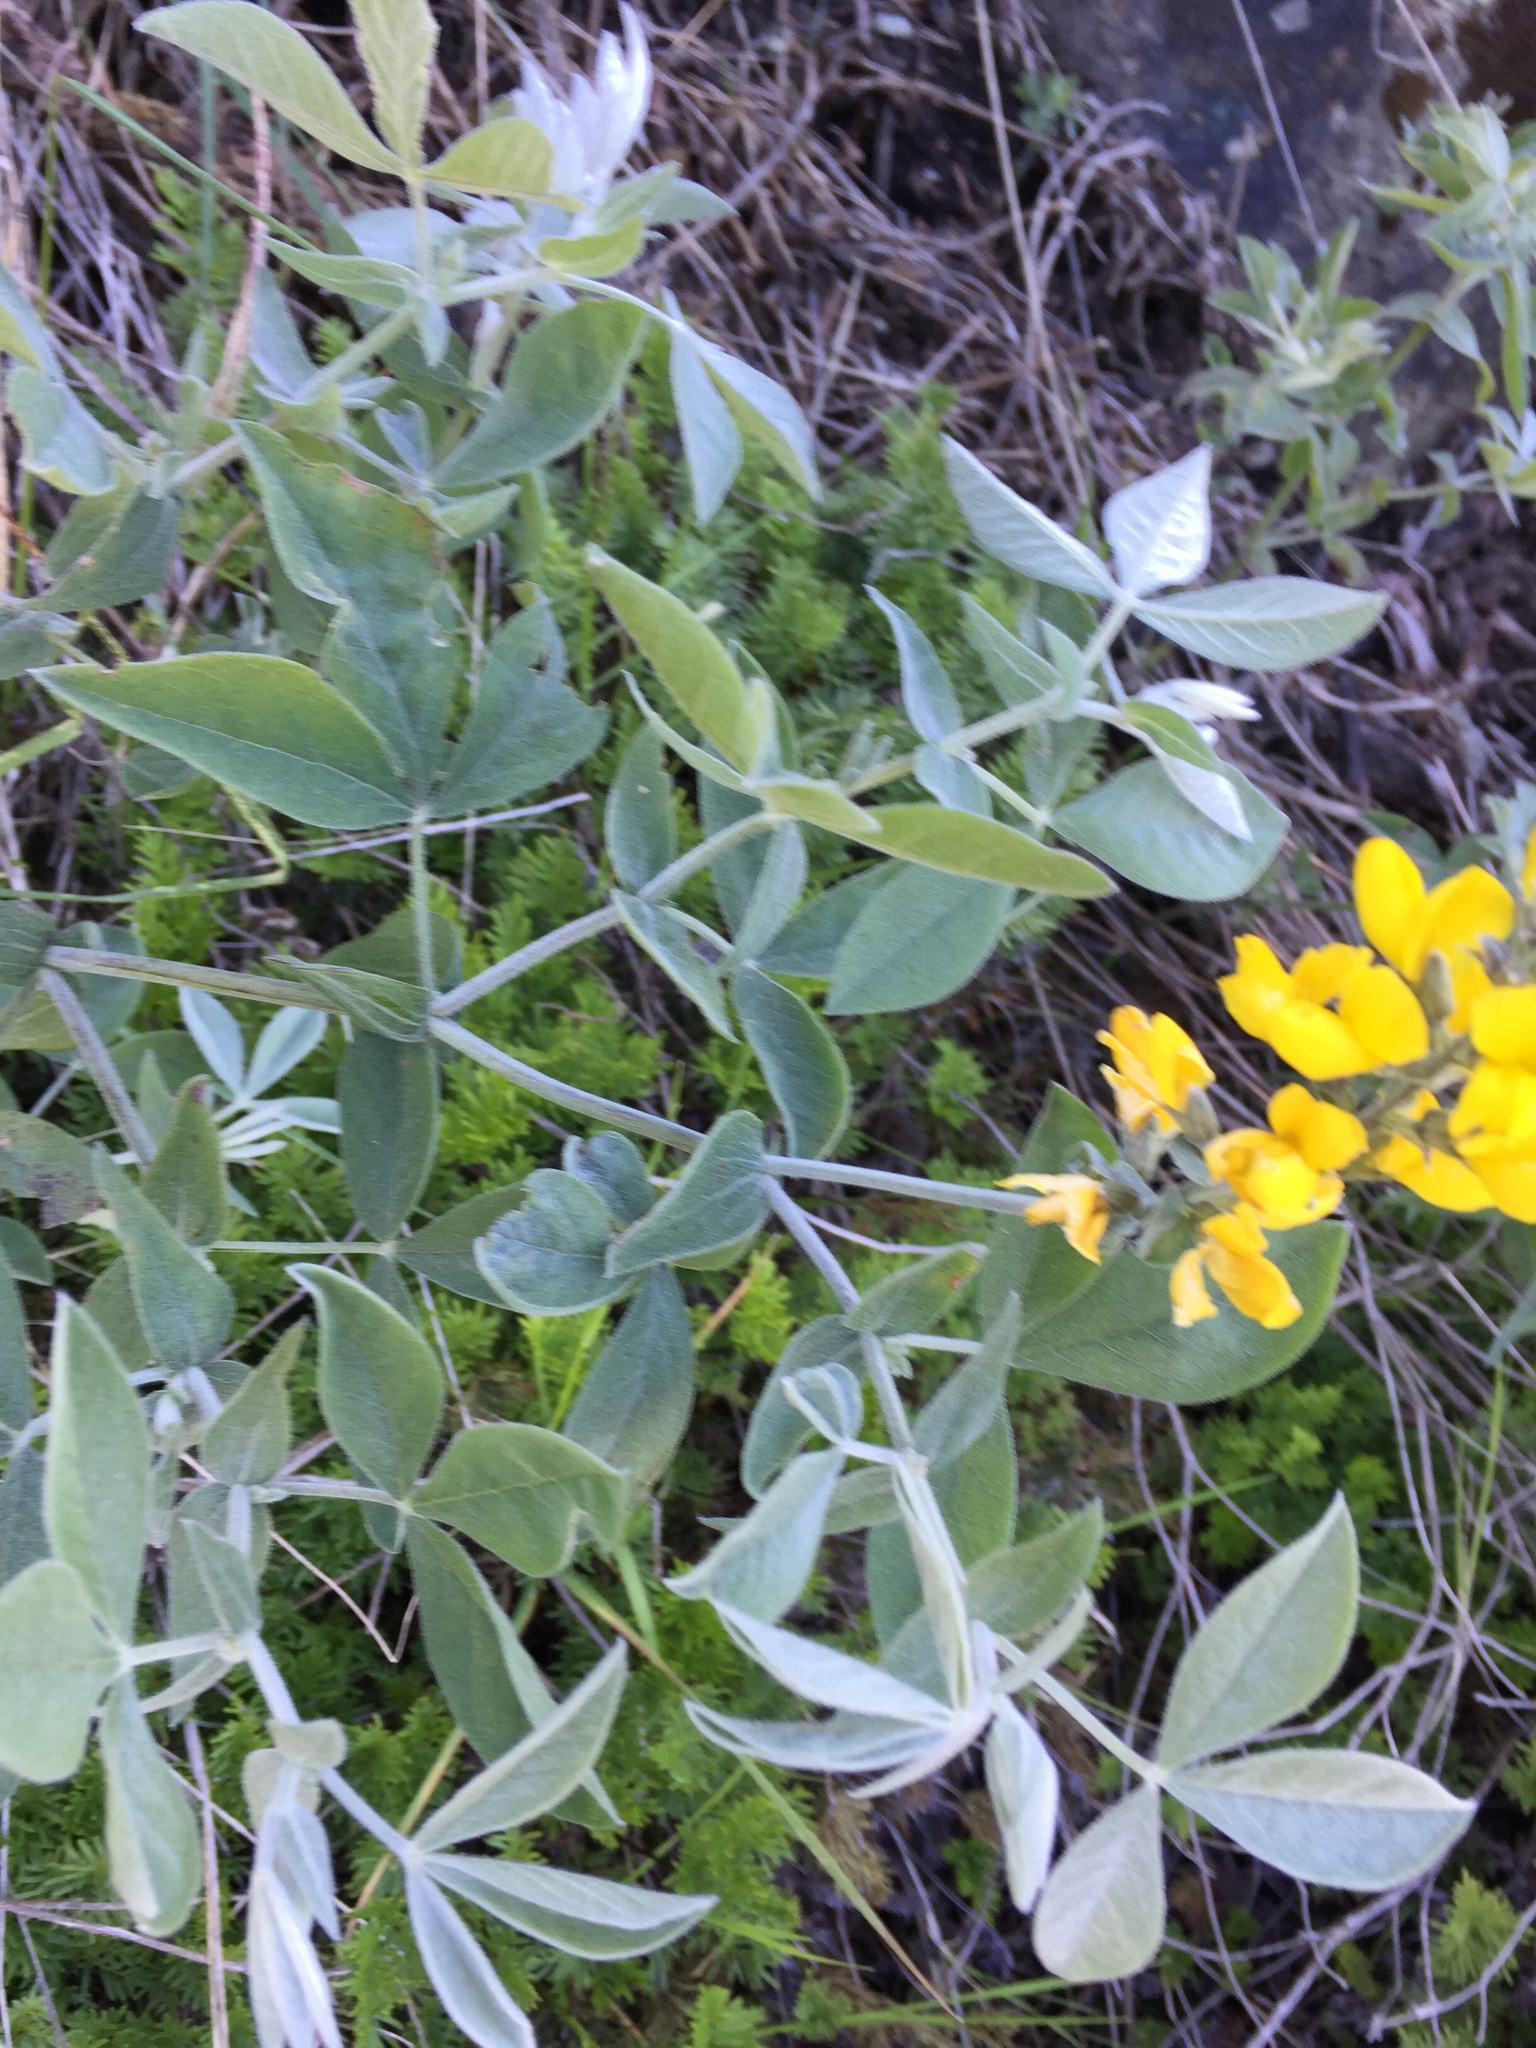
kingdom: Plantae
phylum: Tracheophyta
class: Magnoliopsida
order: Fabales
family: Fabaceae
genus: Thermopsis
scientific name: Thermopsis californica
